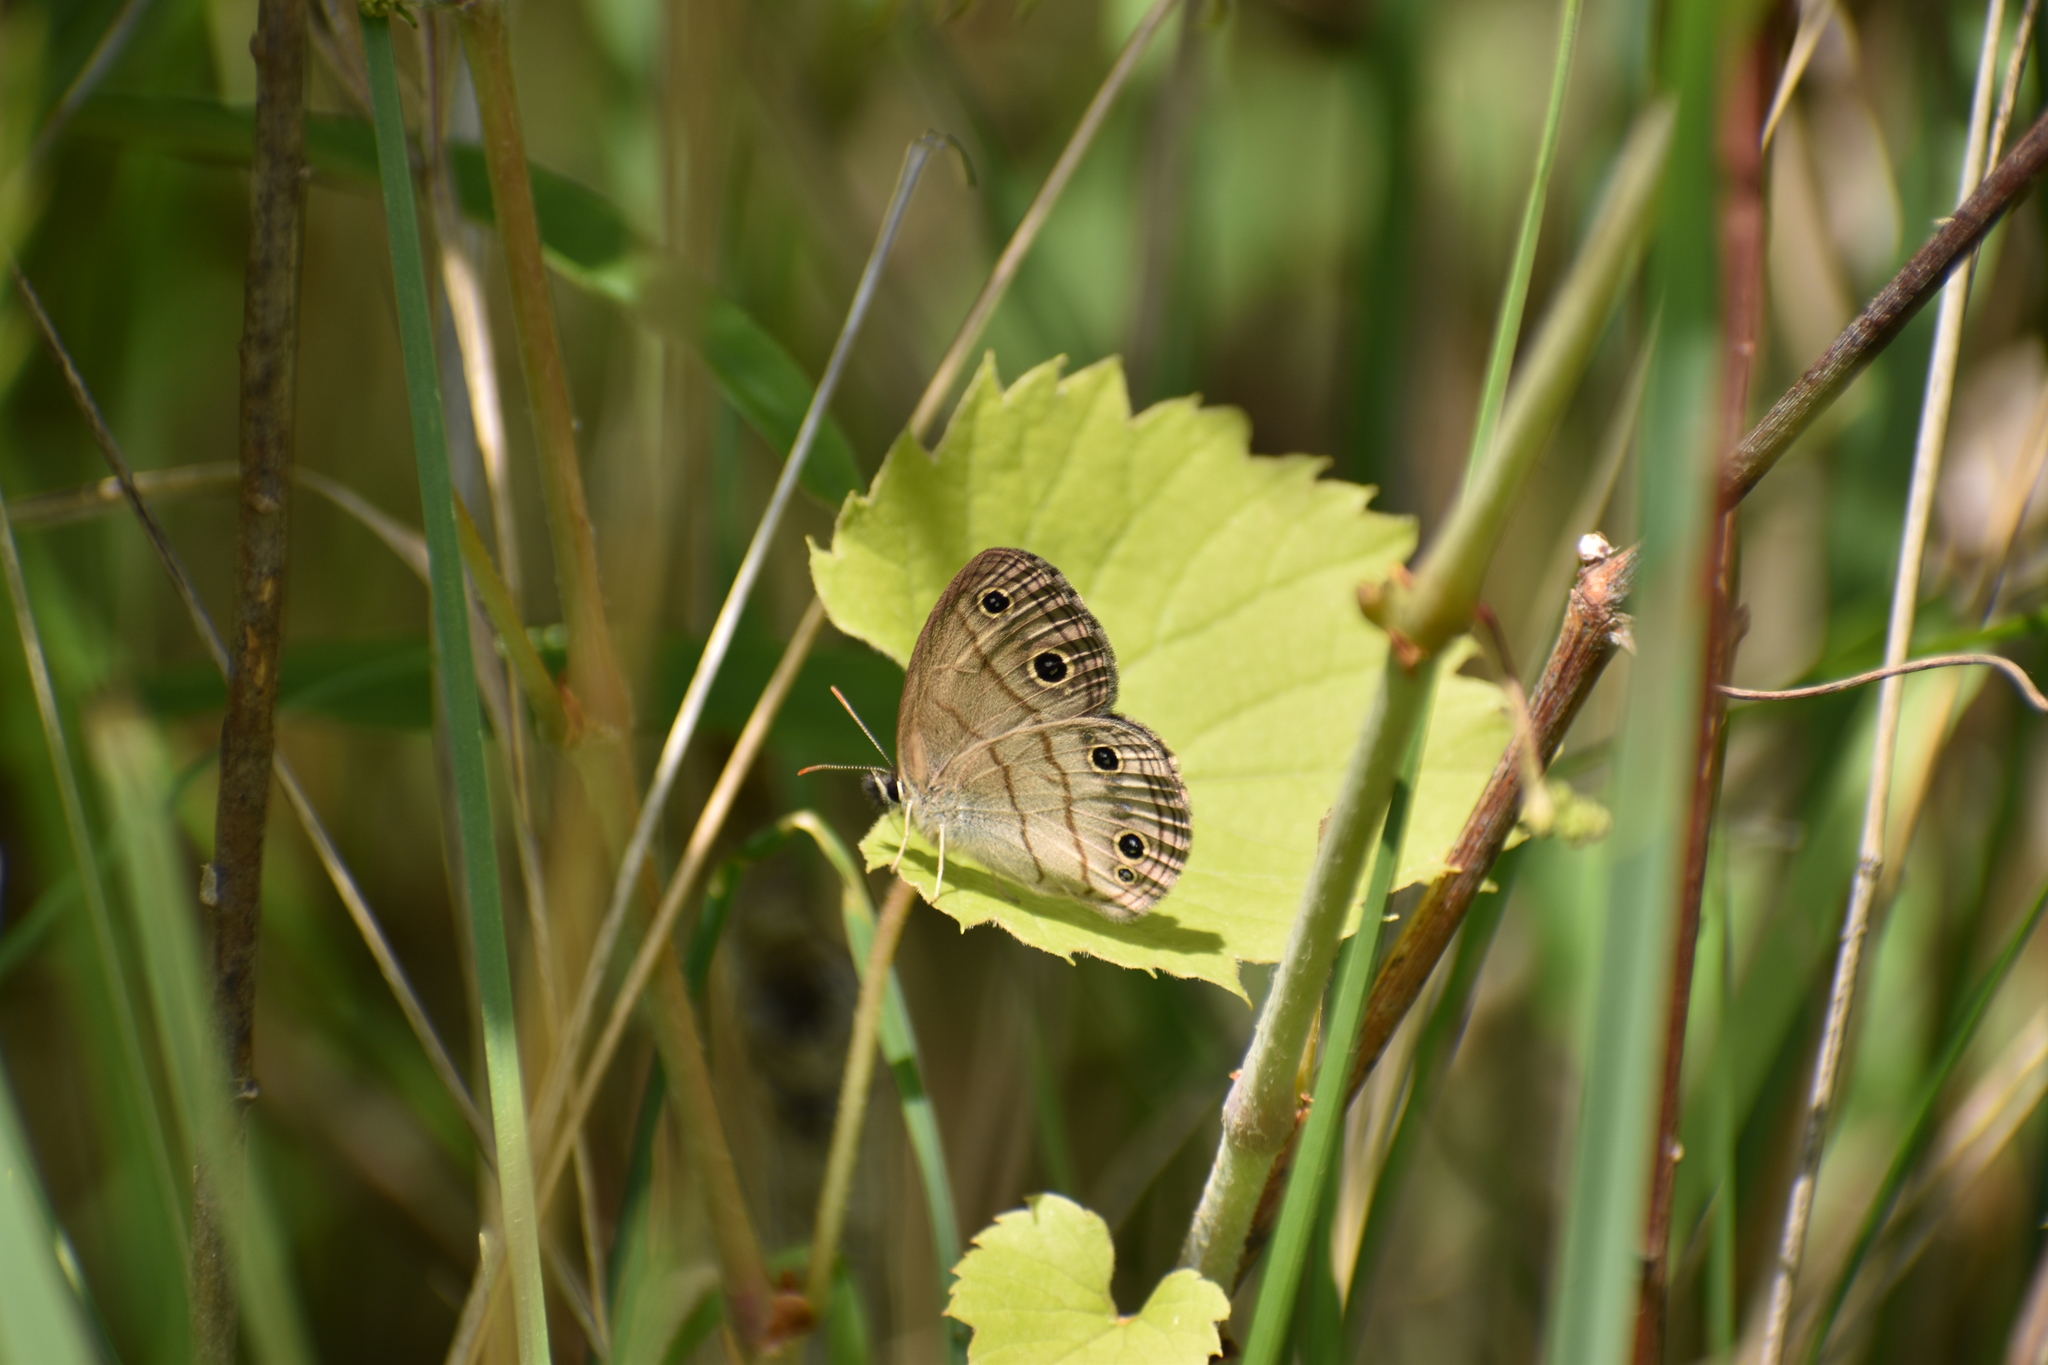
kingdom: Animalia
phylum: Arthropoda
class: Insecta
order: Lepidoptera
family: Nymphalidae
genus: Euptychia
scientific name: Euptychia cymela
